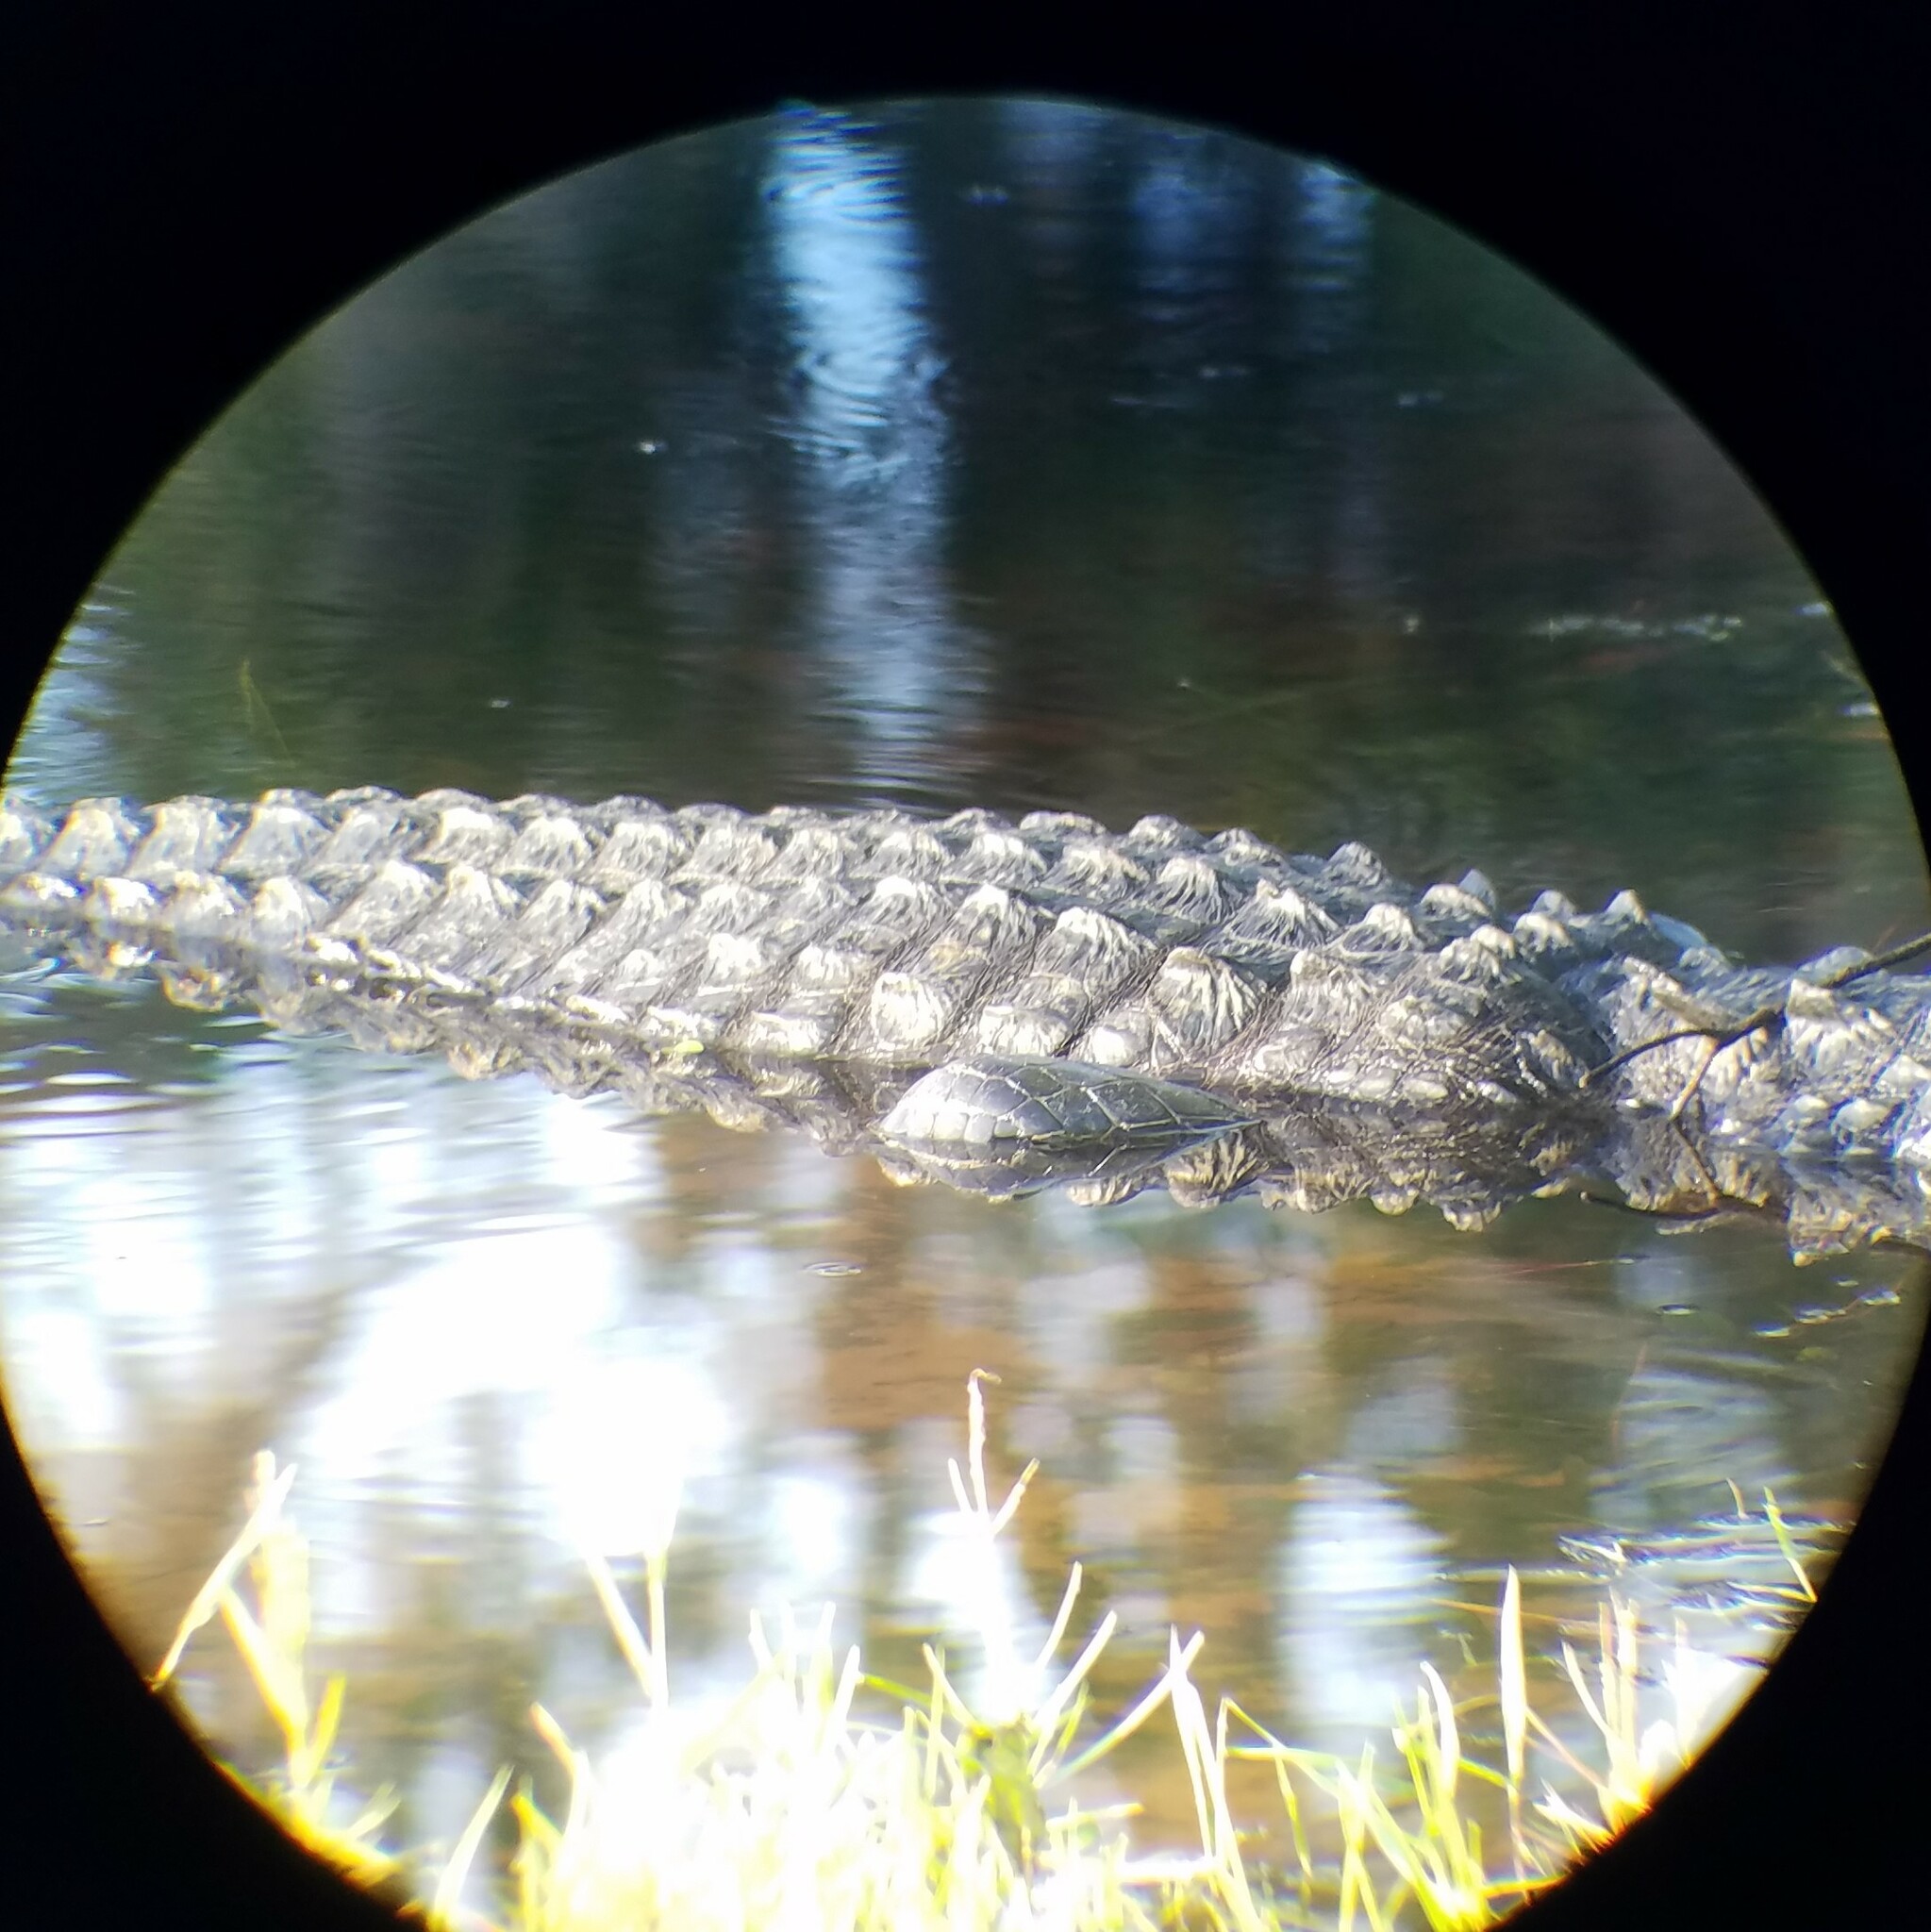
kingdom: Animalia
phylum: Chordata
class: Crocodylia
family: Alligatoridae
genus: Alligator
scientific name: Alligator mississippiensis
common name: American alligator
